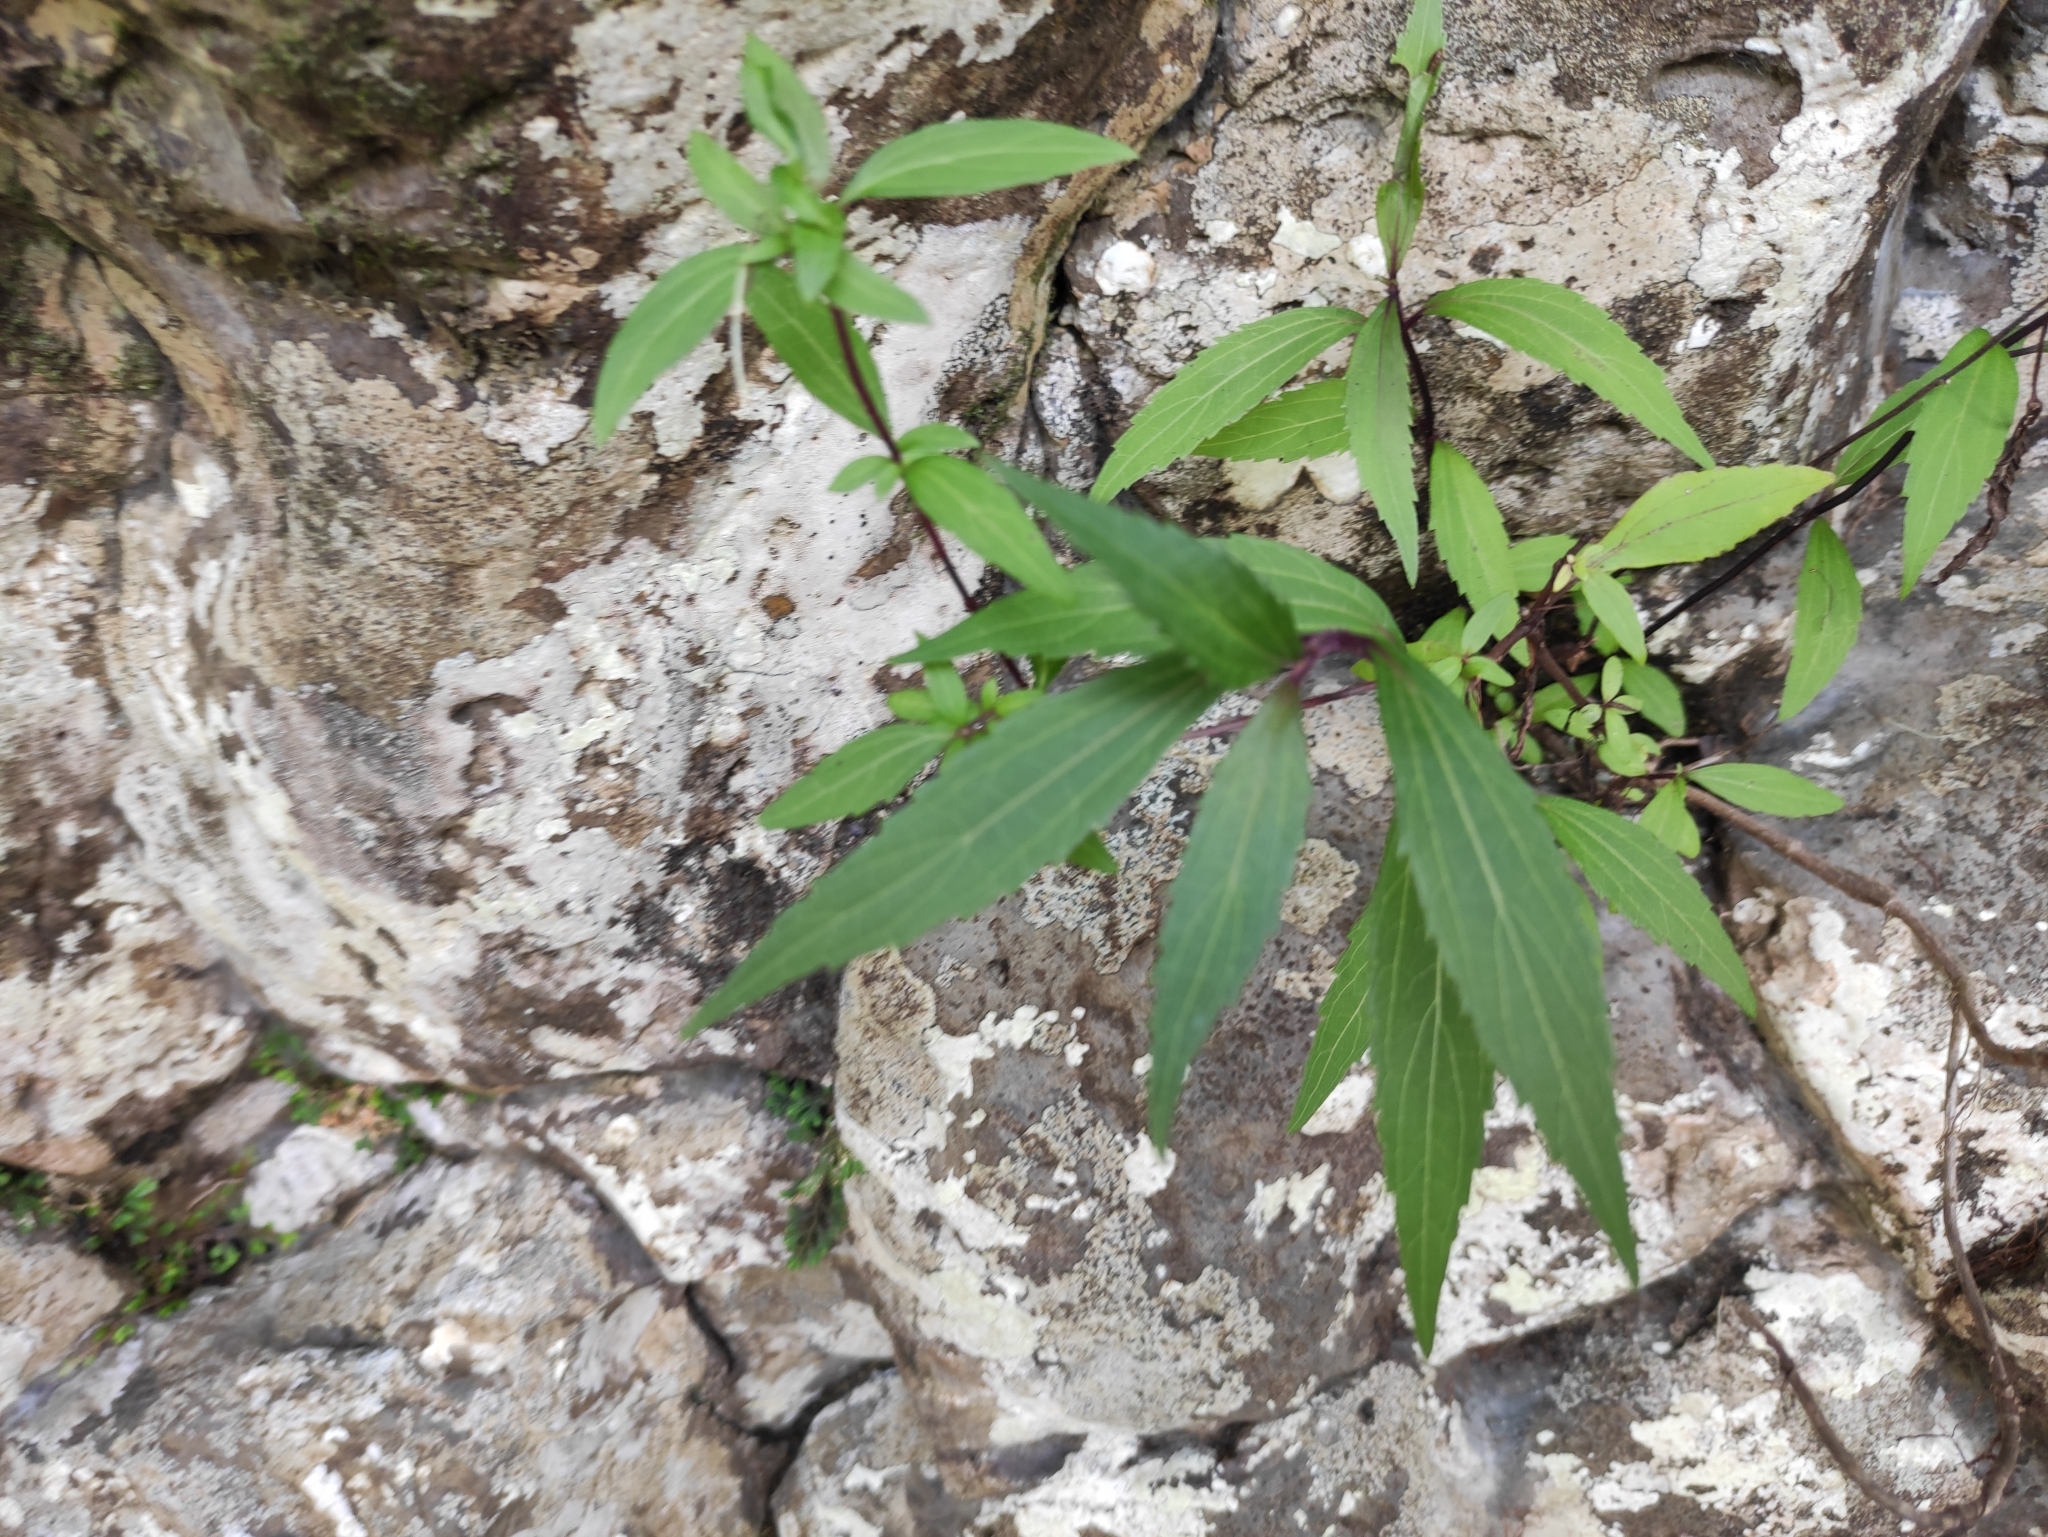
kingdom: Plantae
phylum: Tracheophyta
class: Magnoliopsida
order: Asterales
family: Asteraceae
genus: Ageratina
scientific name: Ageratina riparia
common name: Creeping croftonweed
